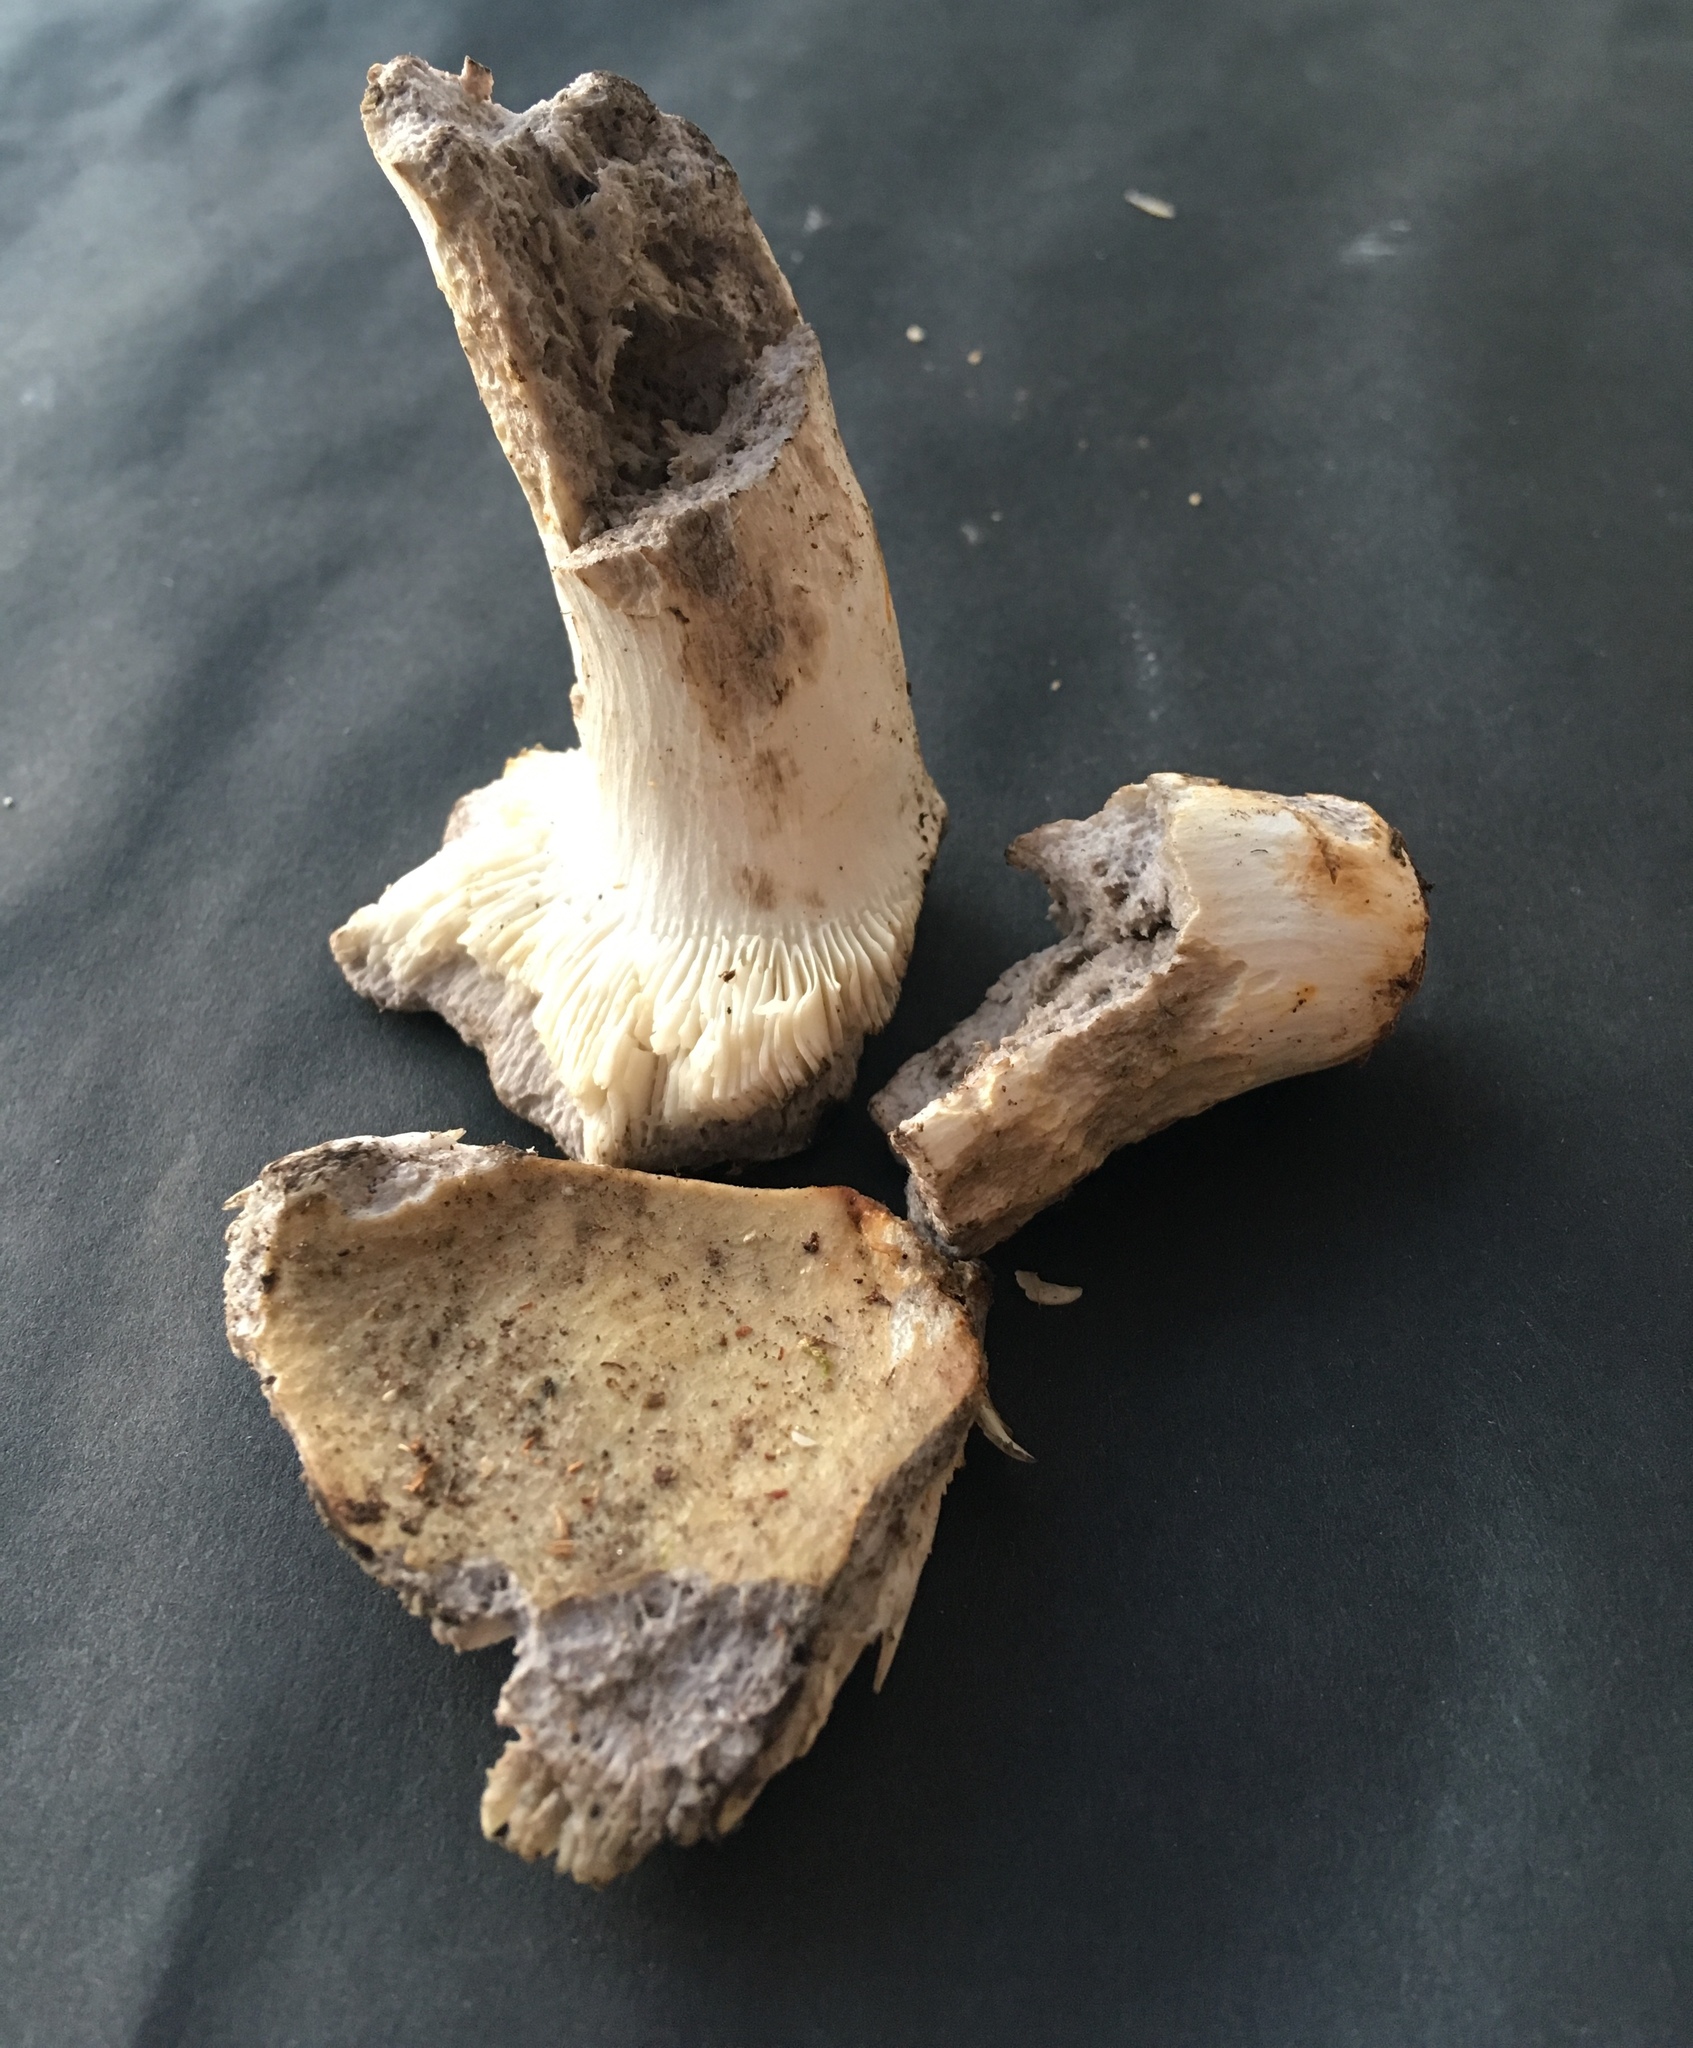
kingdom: Fungi
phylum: Basidiomycota
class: Agaricomycetes
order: Russulales
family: Russulaceae
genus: Russula
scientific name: Russula claroflava
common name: The yellow swamp brittlegill
